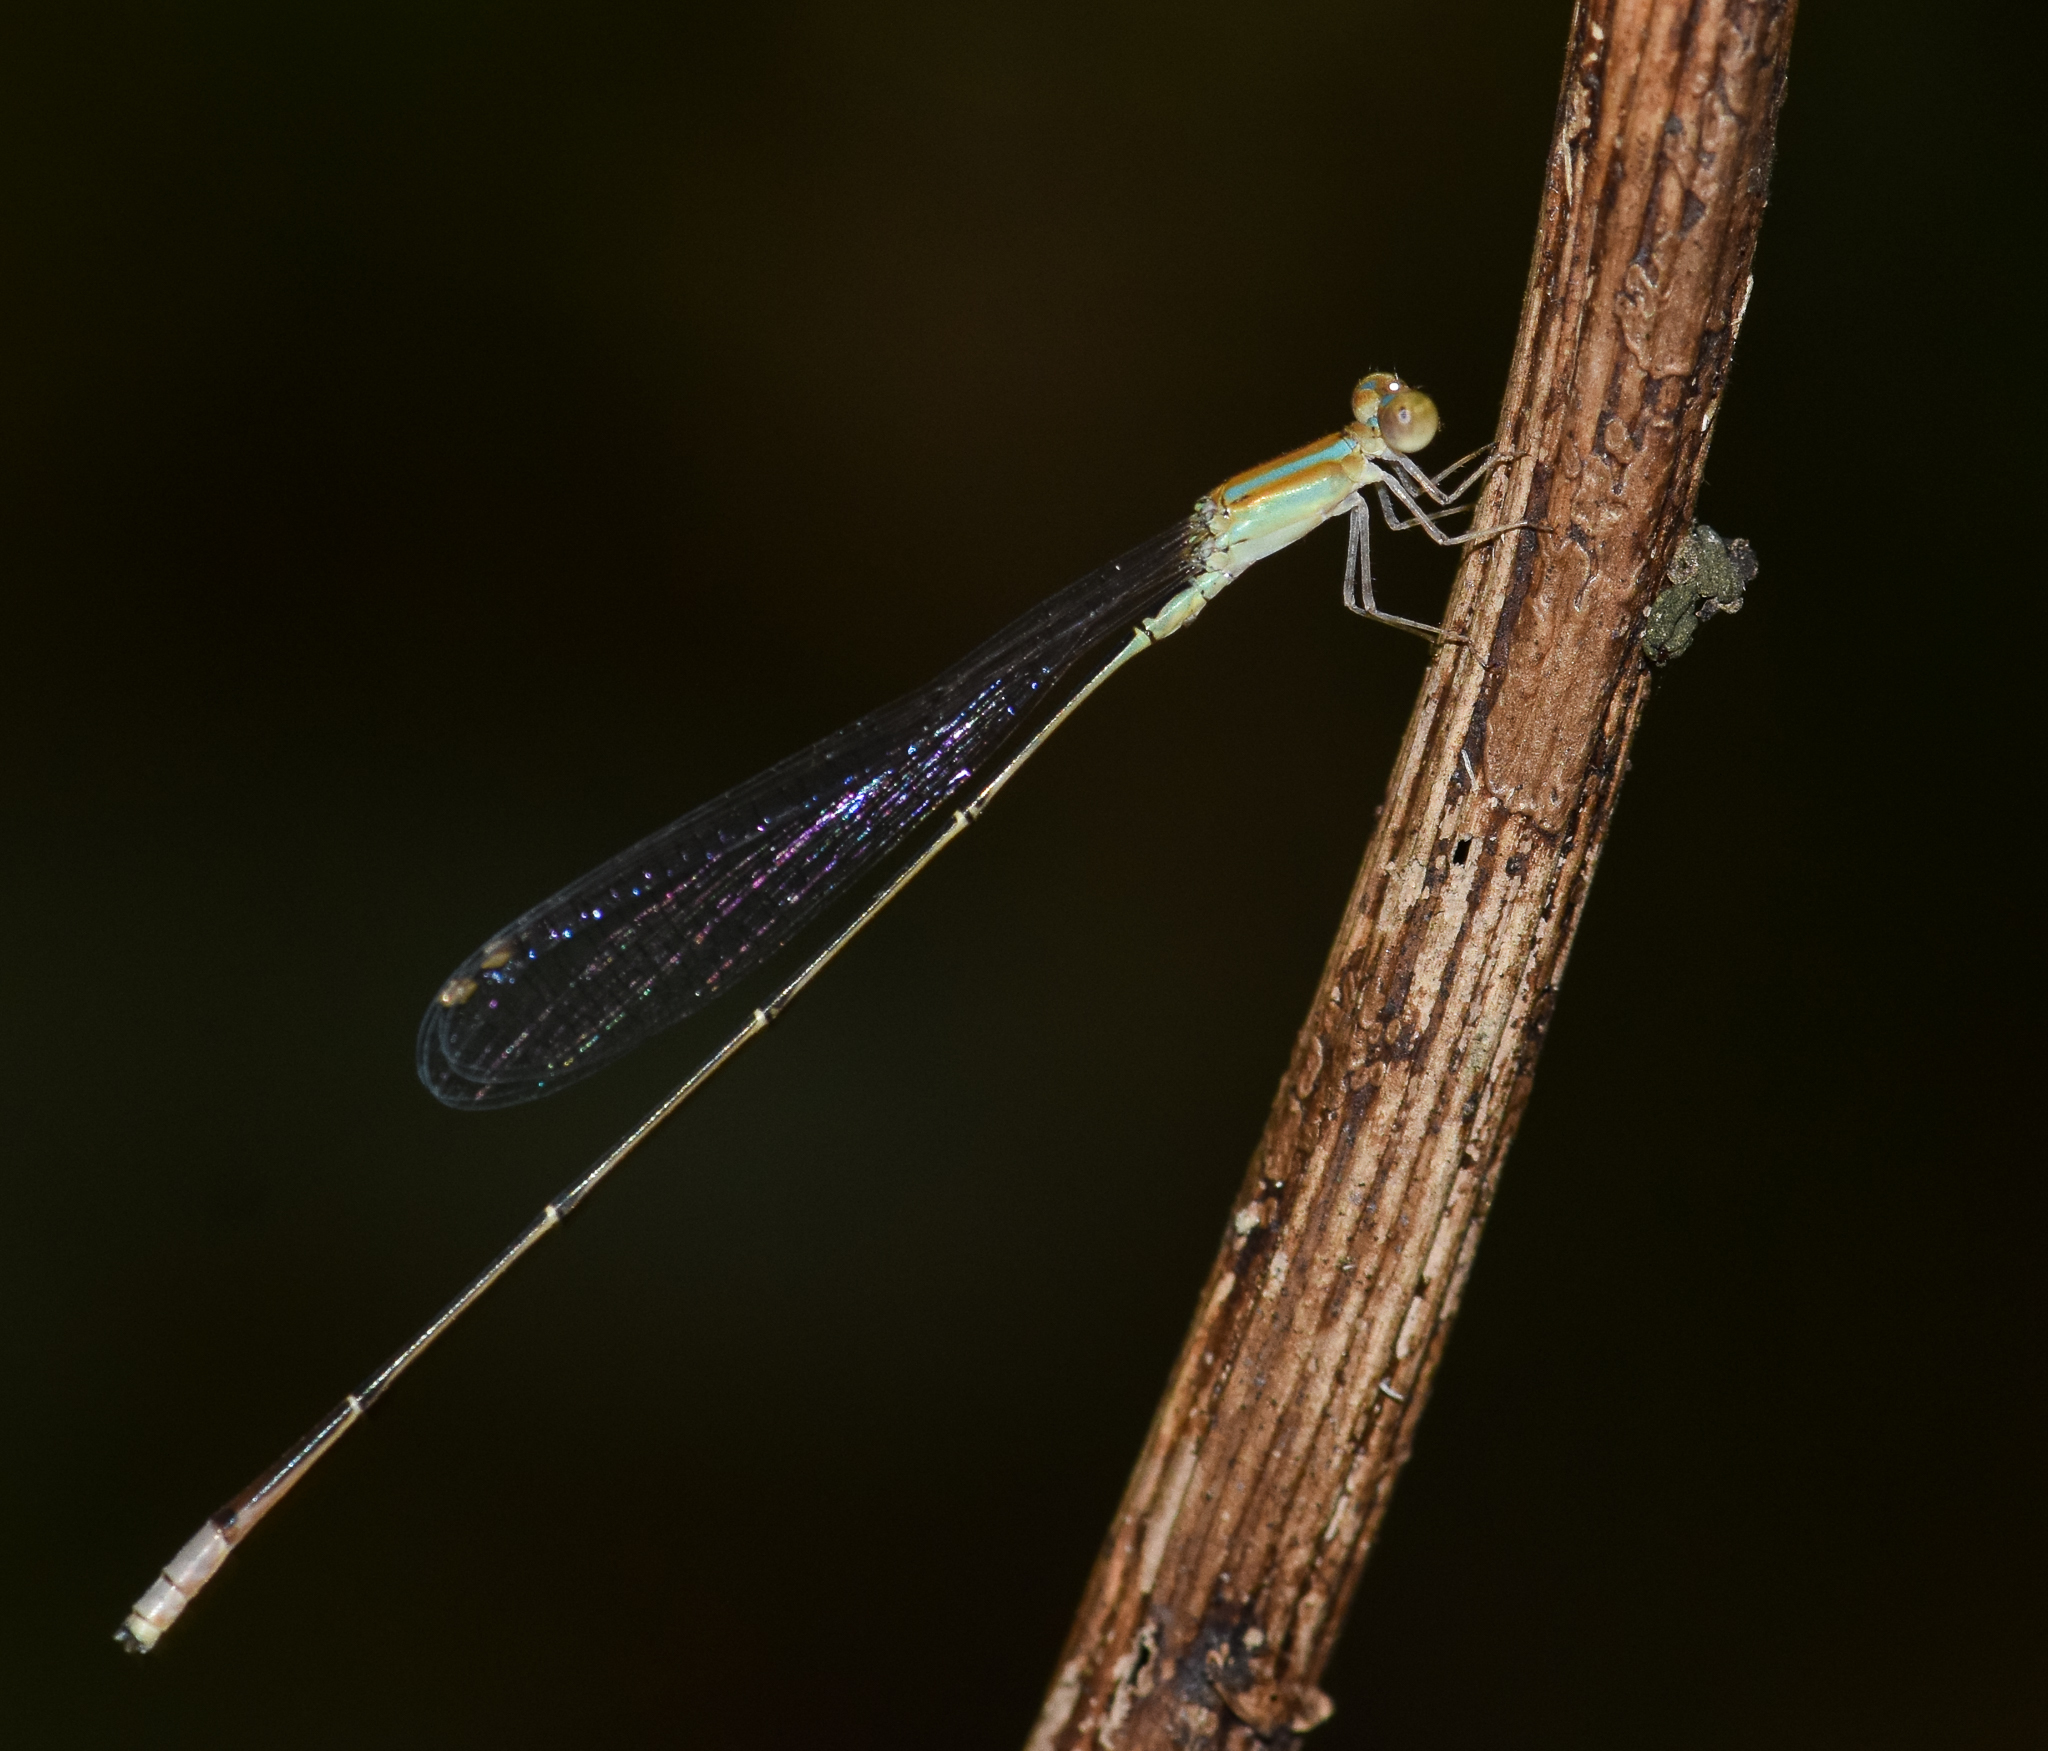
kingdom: Animalia
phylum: Arthropoda
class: Insecta
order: Odonata
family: Coenagrionidae
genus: Aciagrion
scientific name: Aciagrion pallidum
